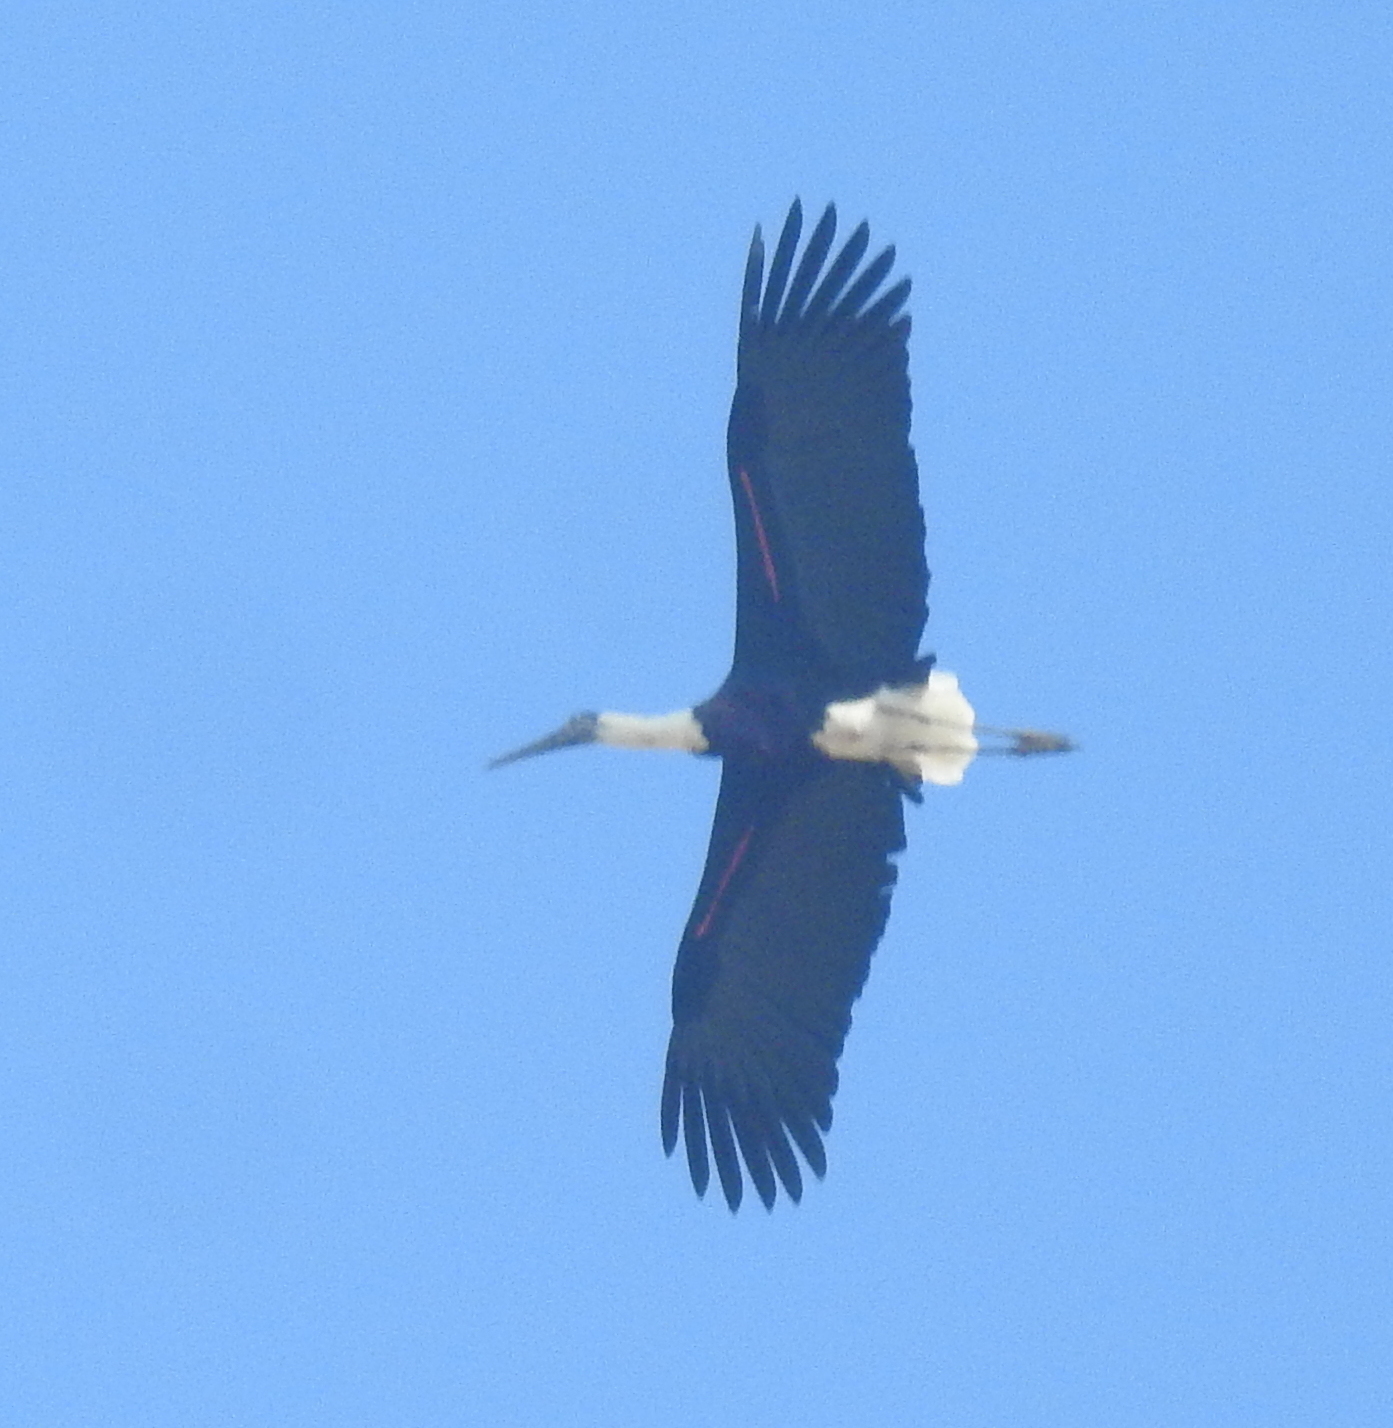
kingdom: Animalia
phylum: Chordata
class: Aves
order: Ciconiiformes
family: Ciconiidae
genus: Ciconia
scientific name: Ciconia episcopus
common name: Woolly-necked stork
